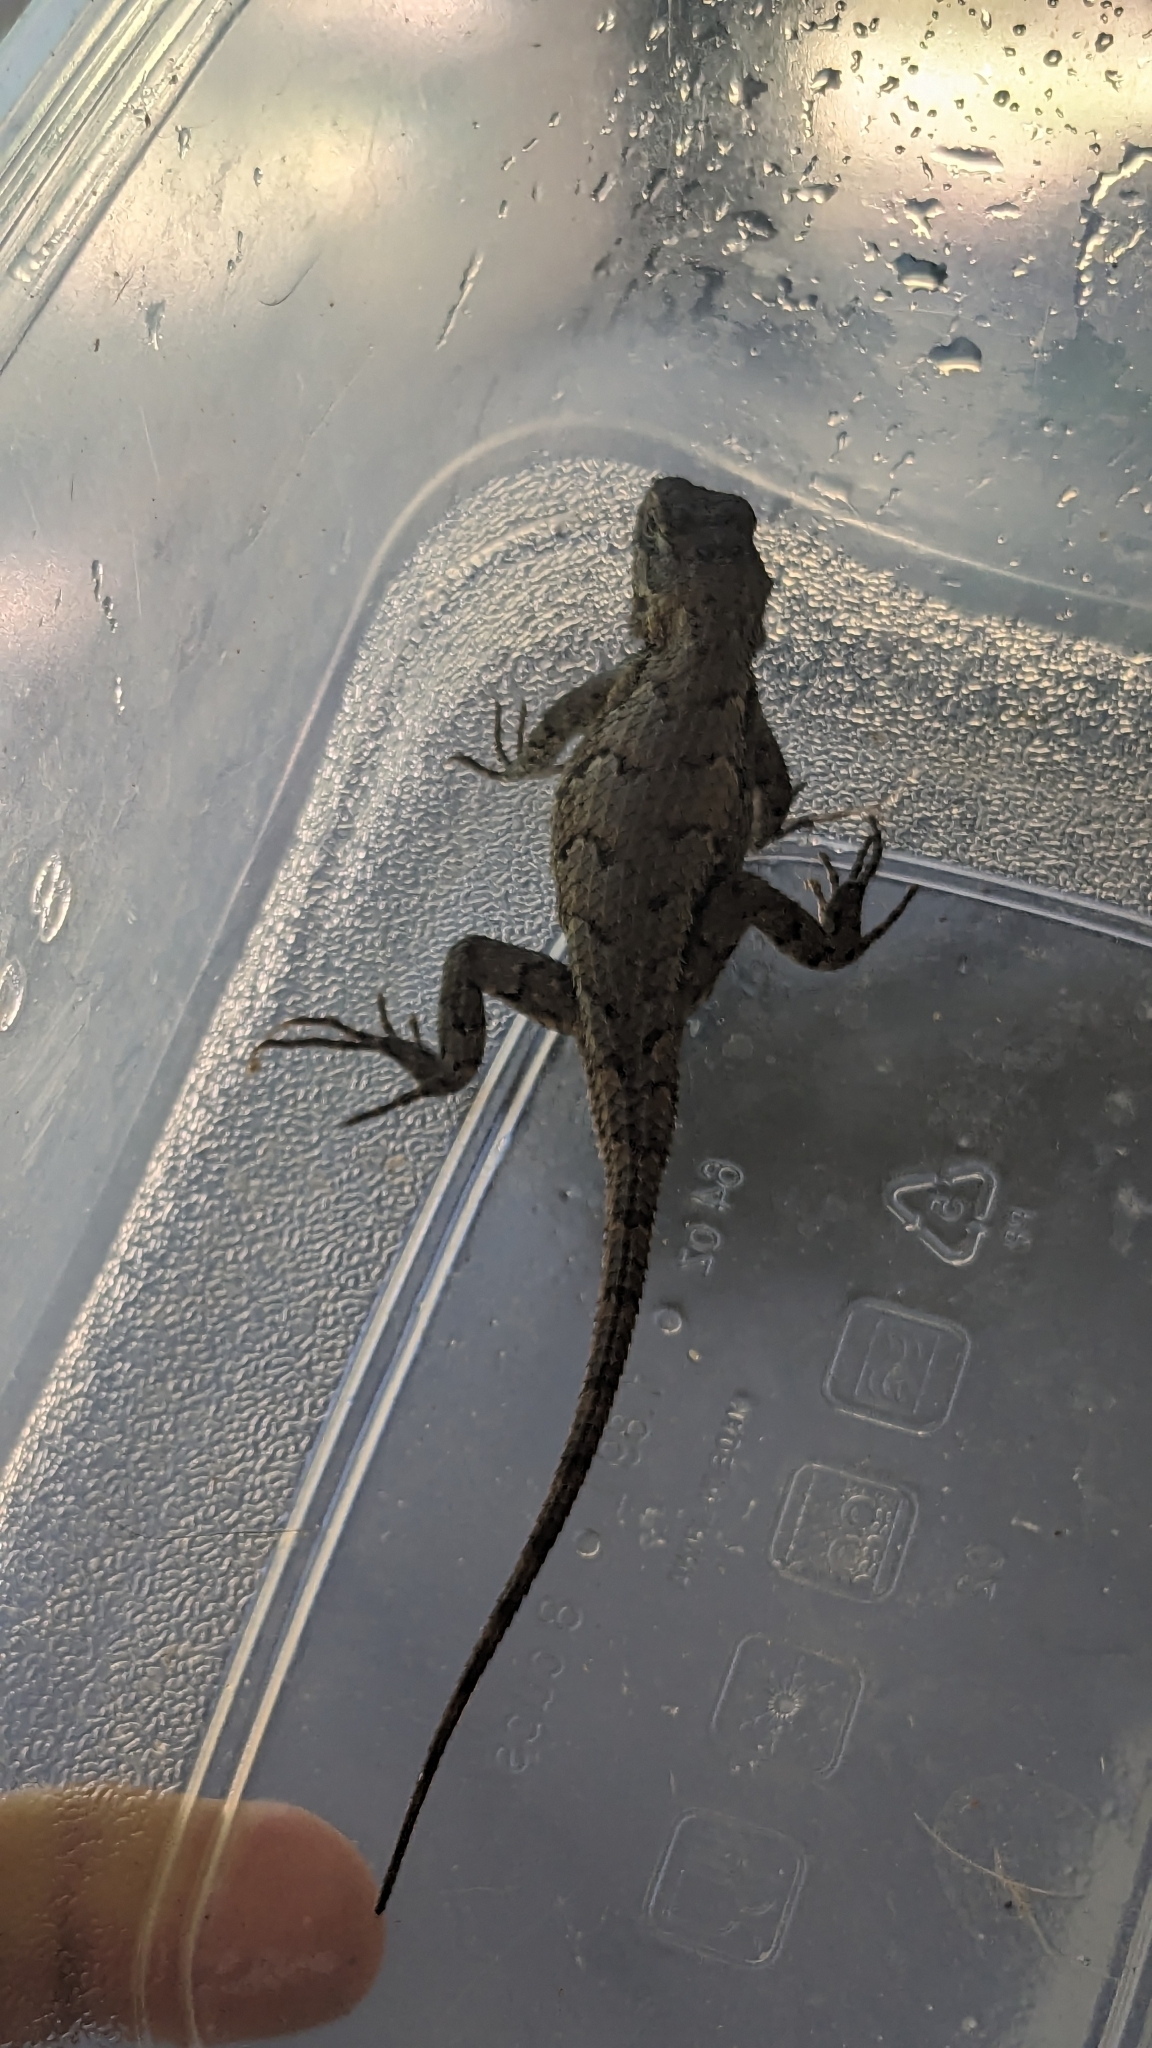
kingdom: Animalia
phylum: Chordata
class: Squamata
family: Phrynosomatidae
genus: Sceloporus
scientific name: Sceloporus undulatus
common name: Eastern fence lizard
